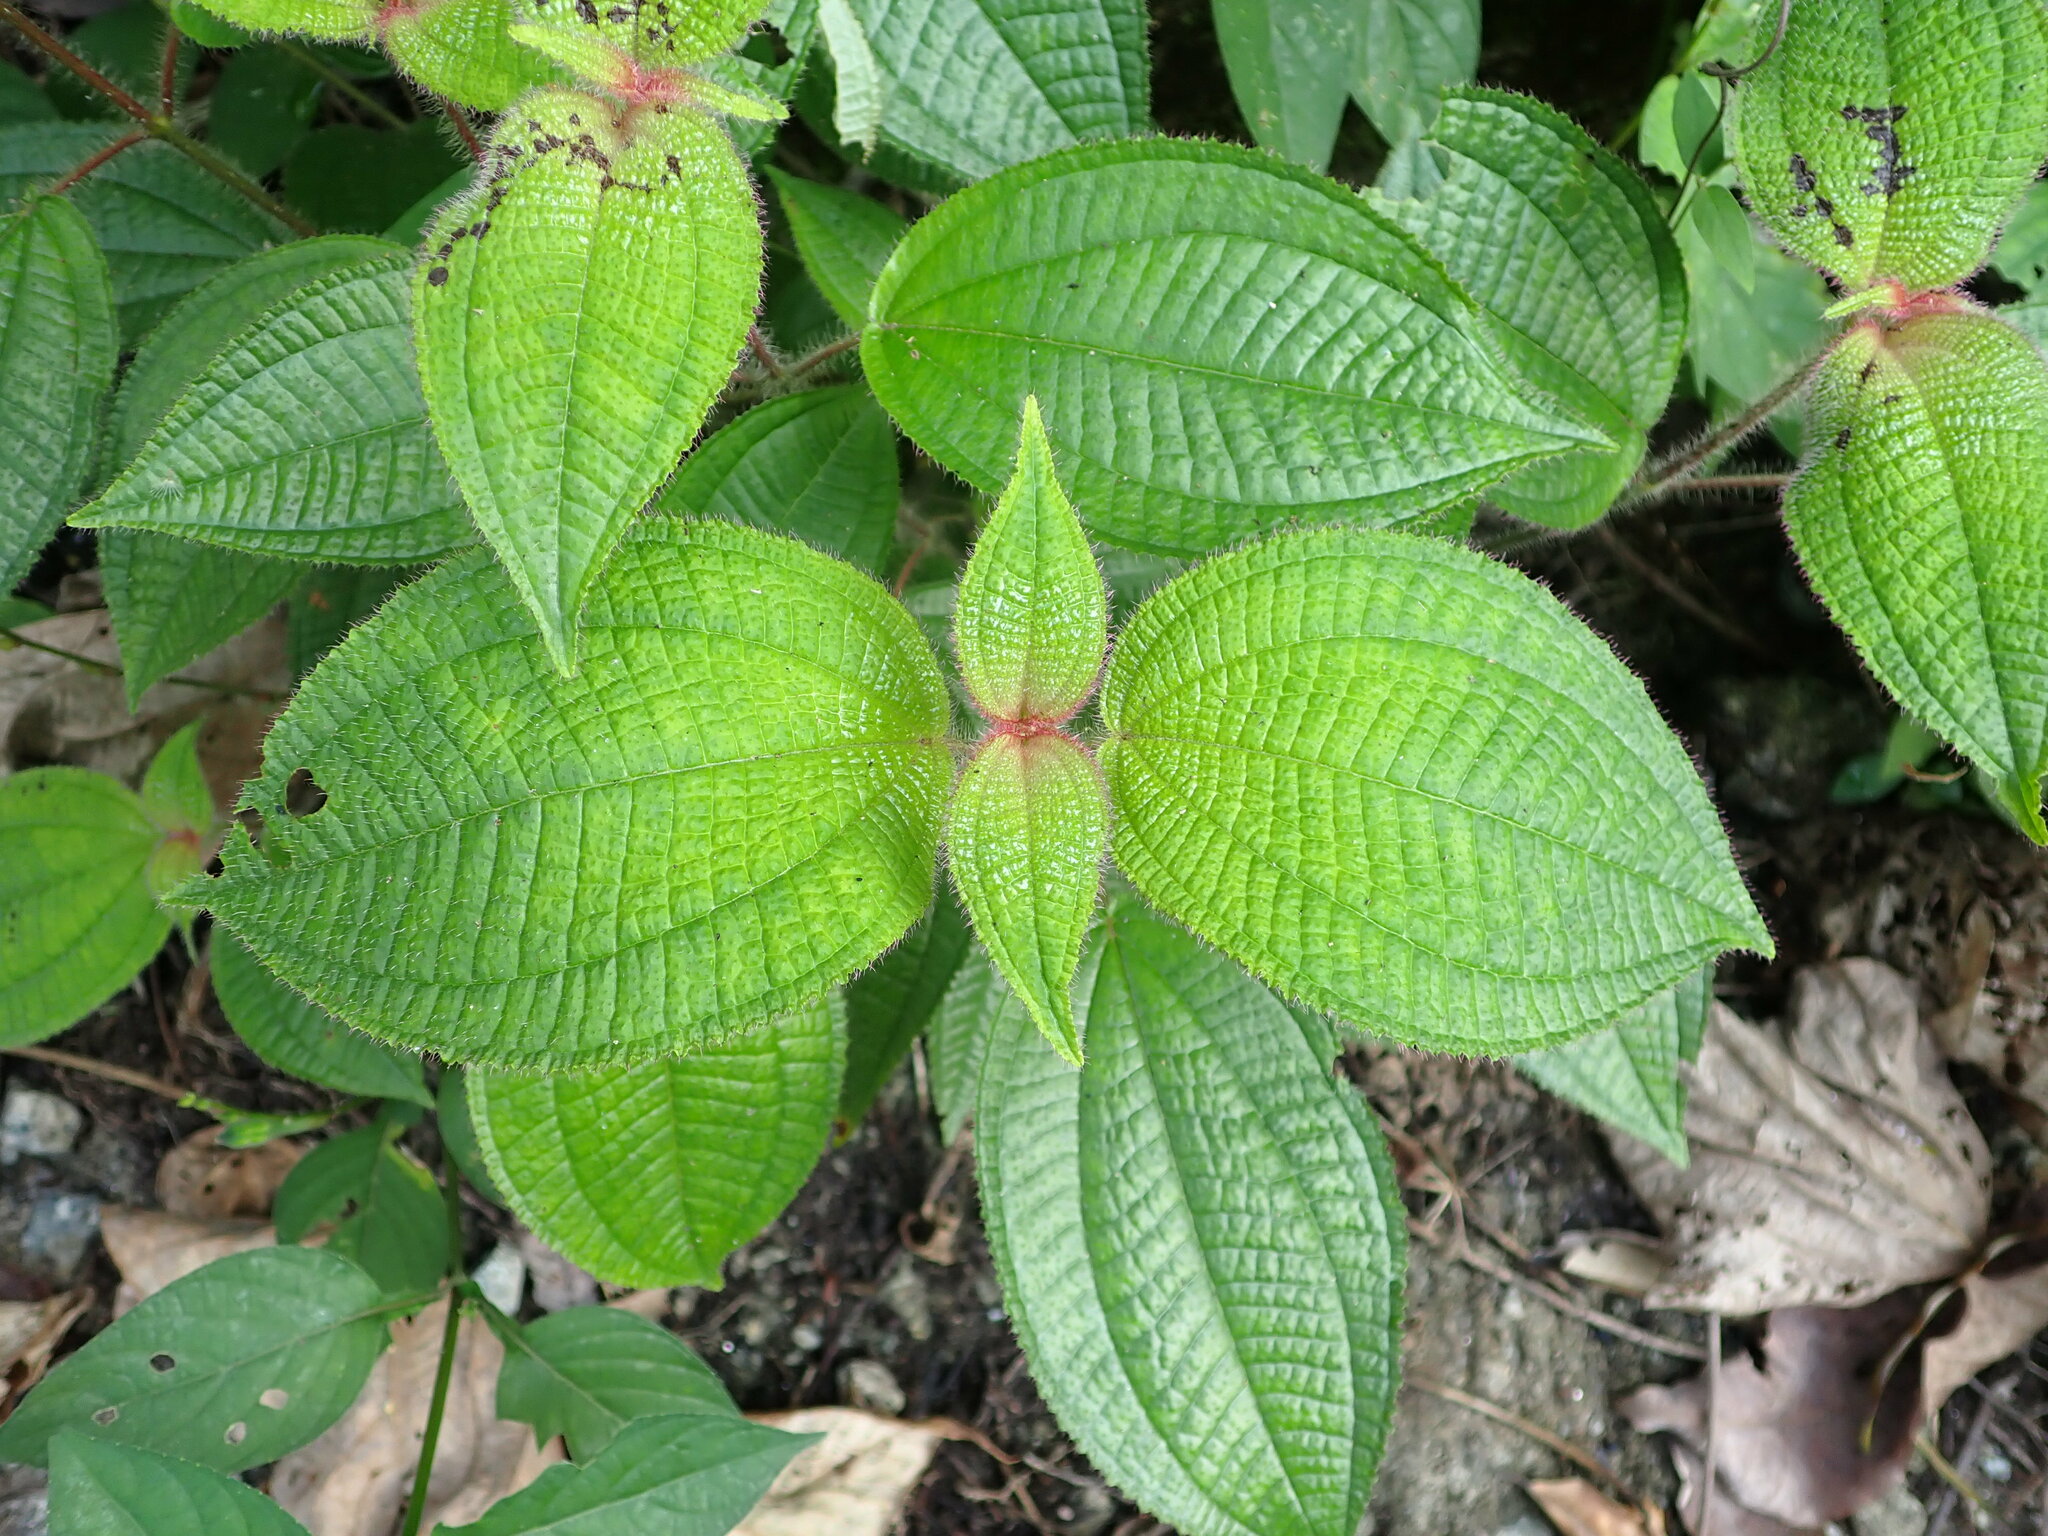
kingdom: Plantae
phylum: Tracheophyta
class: Magnoliopsida
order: Myrtales
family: Melastomataceae
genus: Miconia
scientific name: Miconia crenata
